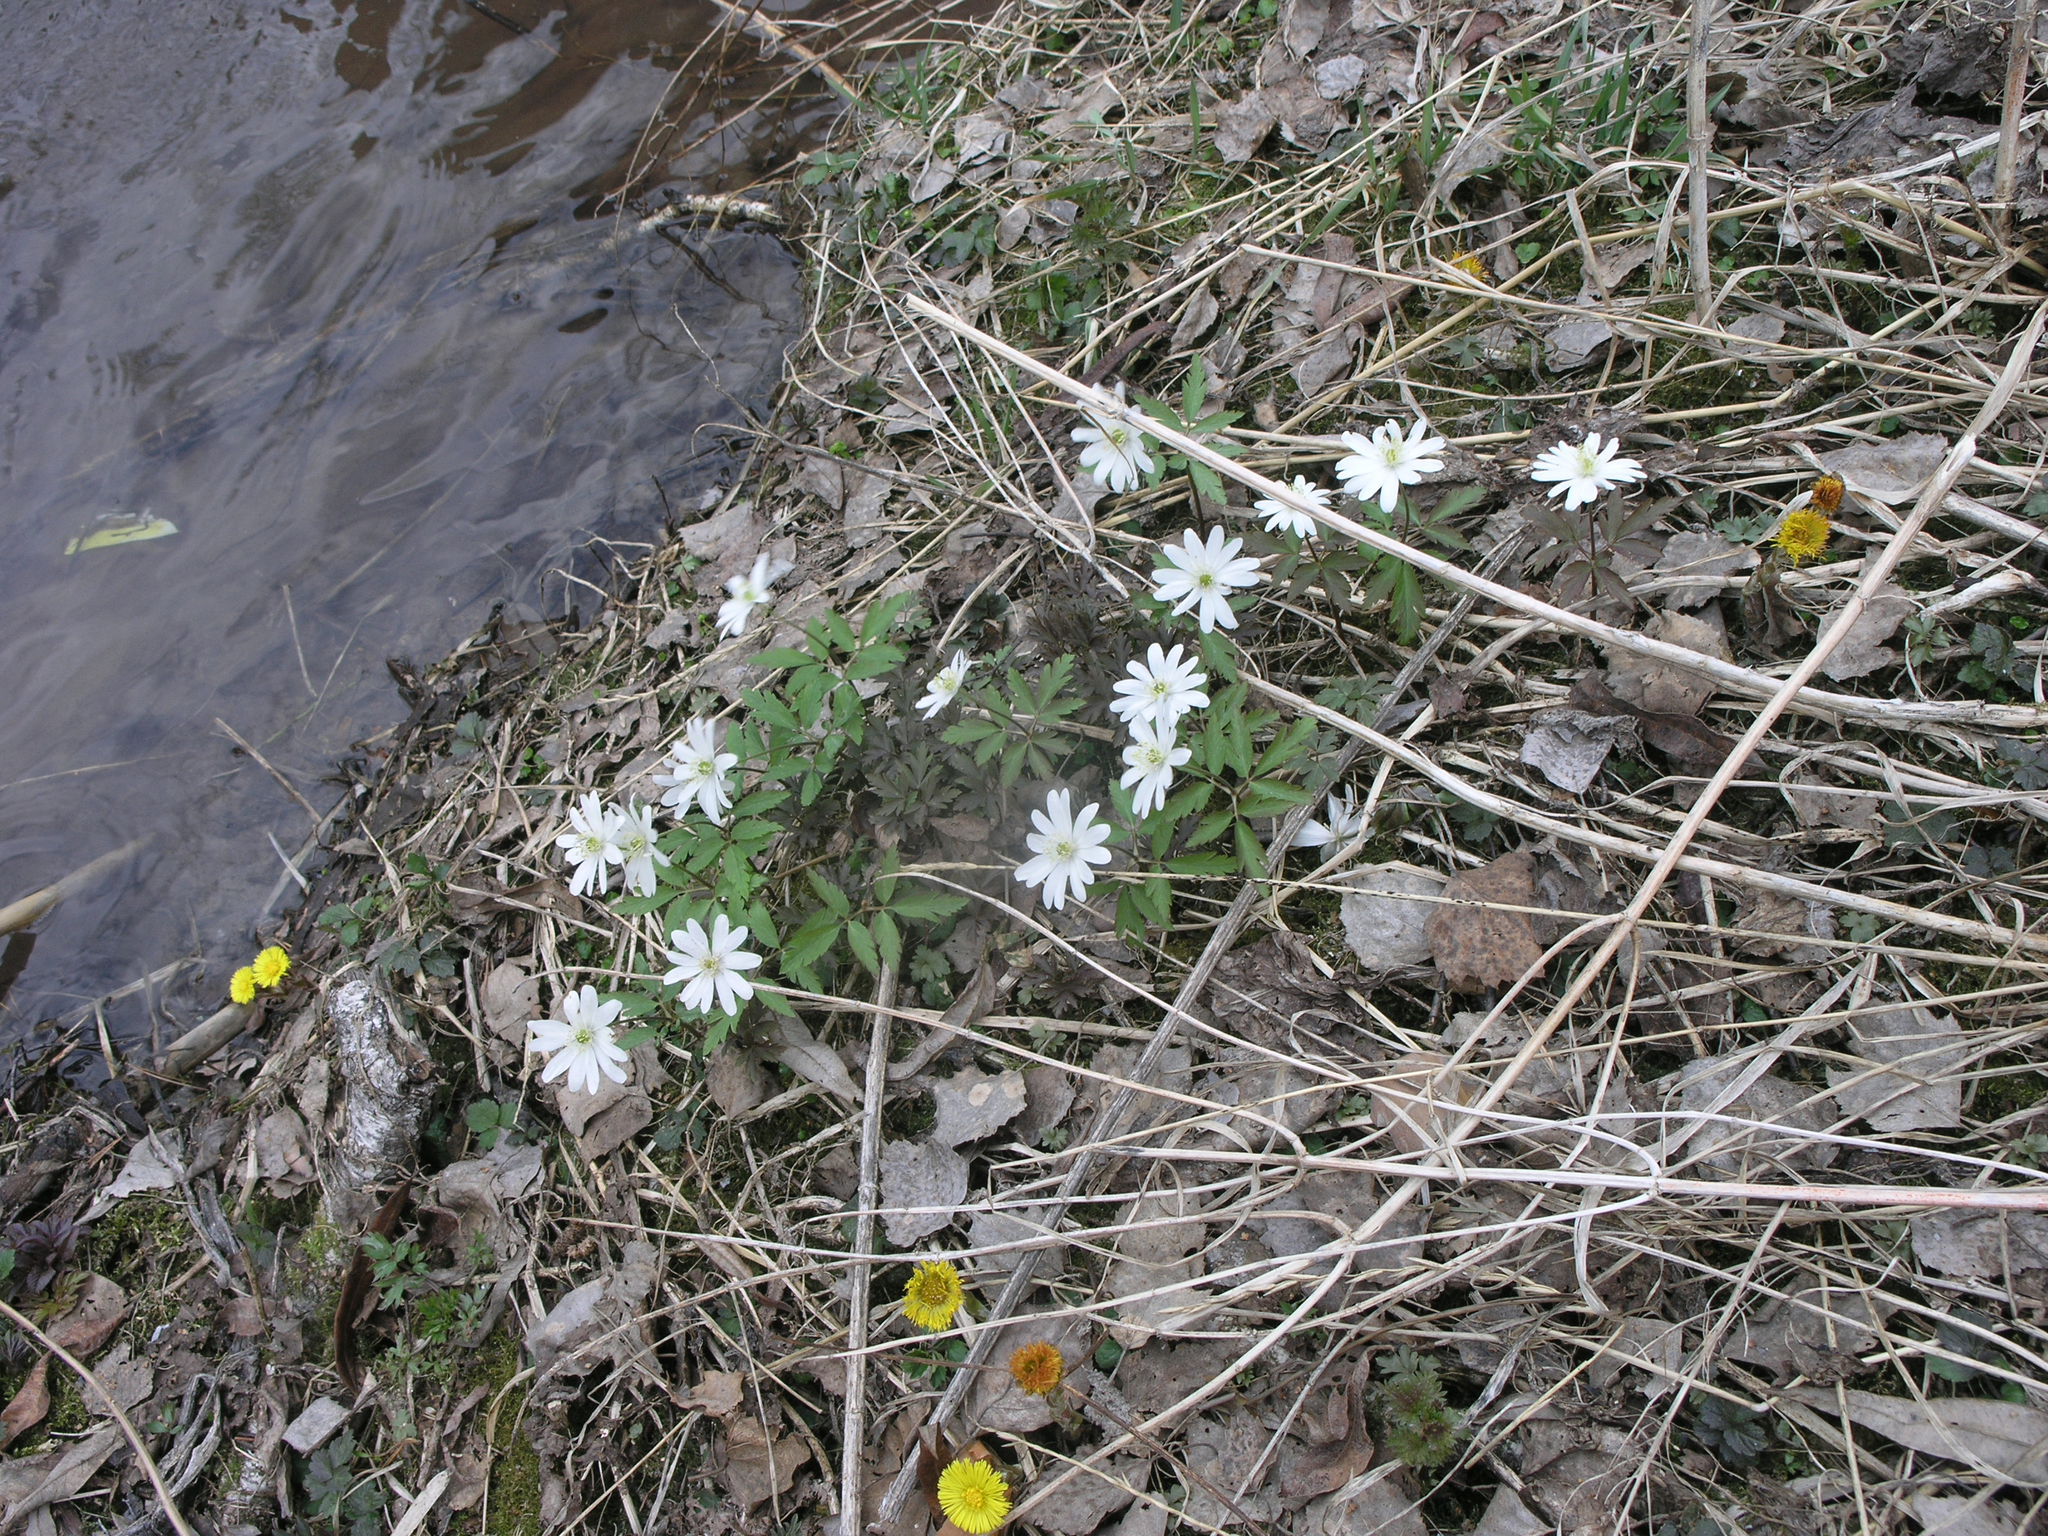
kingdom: Plantae
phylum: Tracheophyta
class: Magnoliopsida
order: Ranunculales
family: Ranunculaceae
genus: Anemone
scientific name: Anemone altaica
